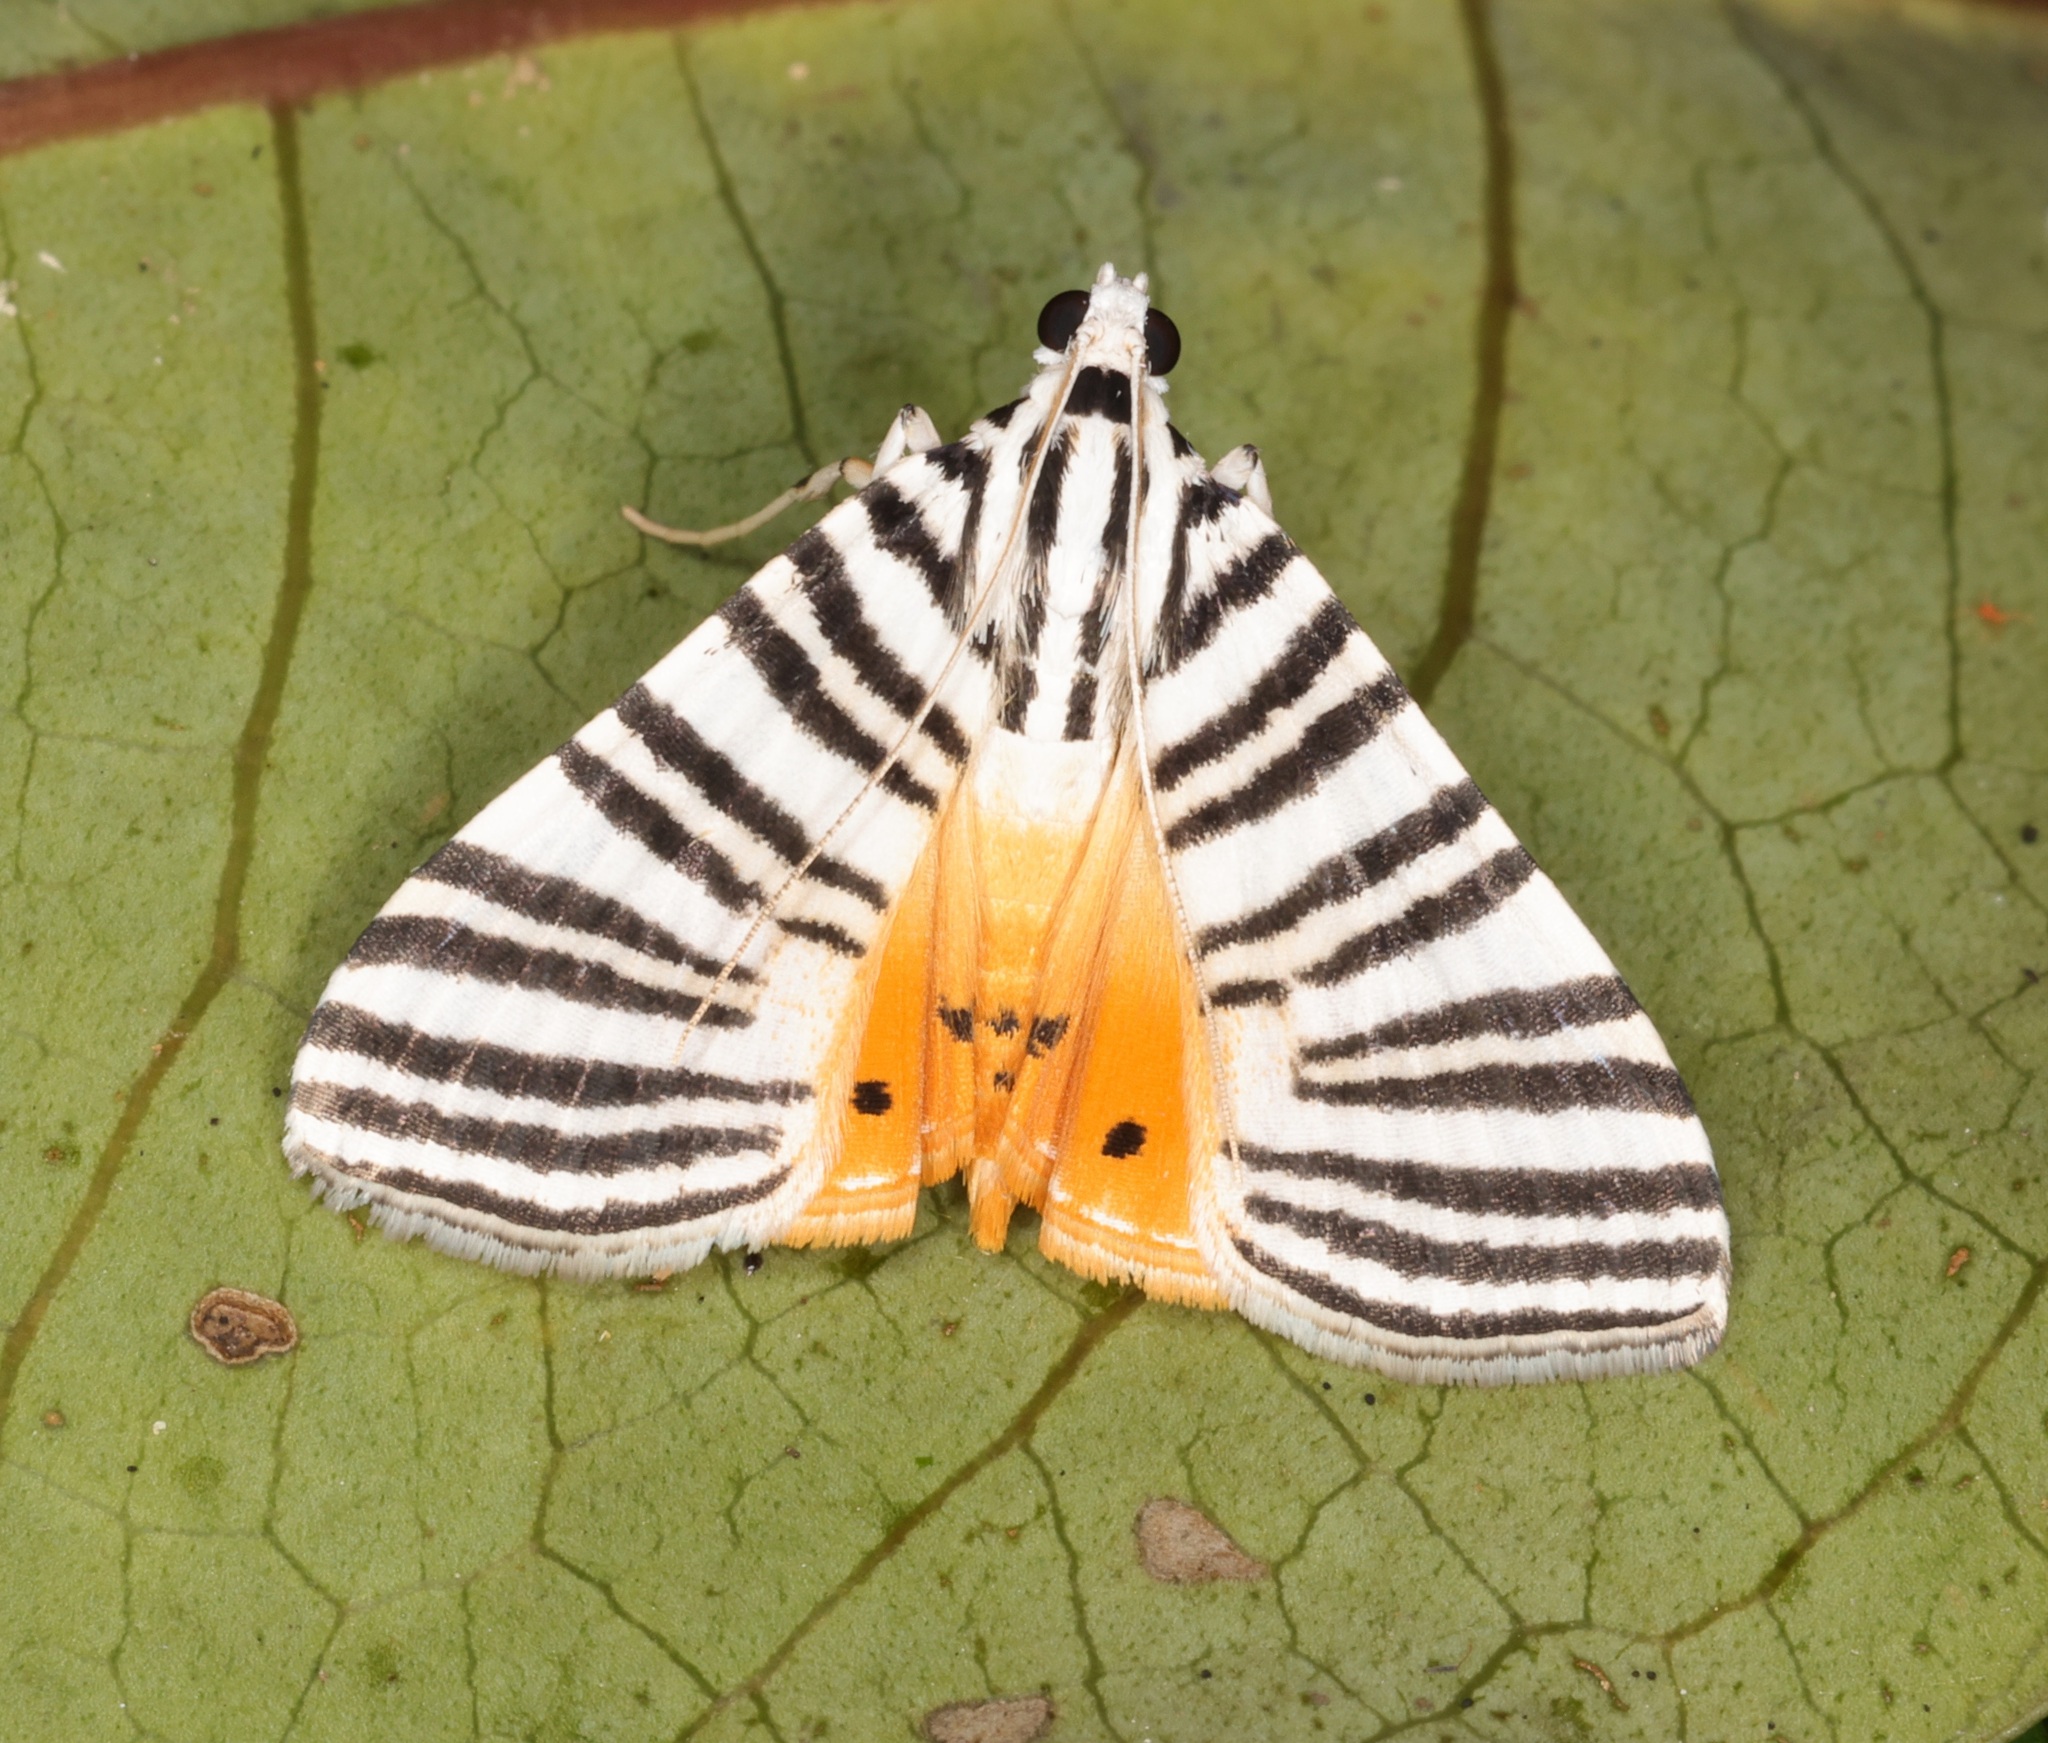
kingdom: Animalia
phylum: Arthropoda
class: Insecta
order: Lepidoptera
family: Crambidae
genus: Dichocrocis
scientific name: Dichocrocis zebralis
